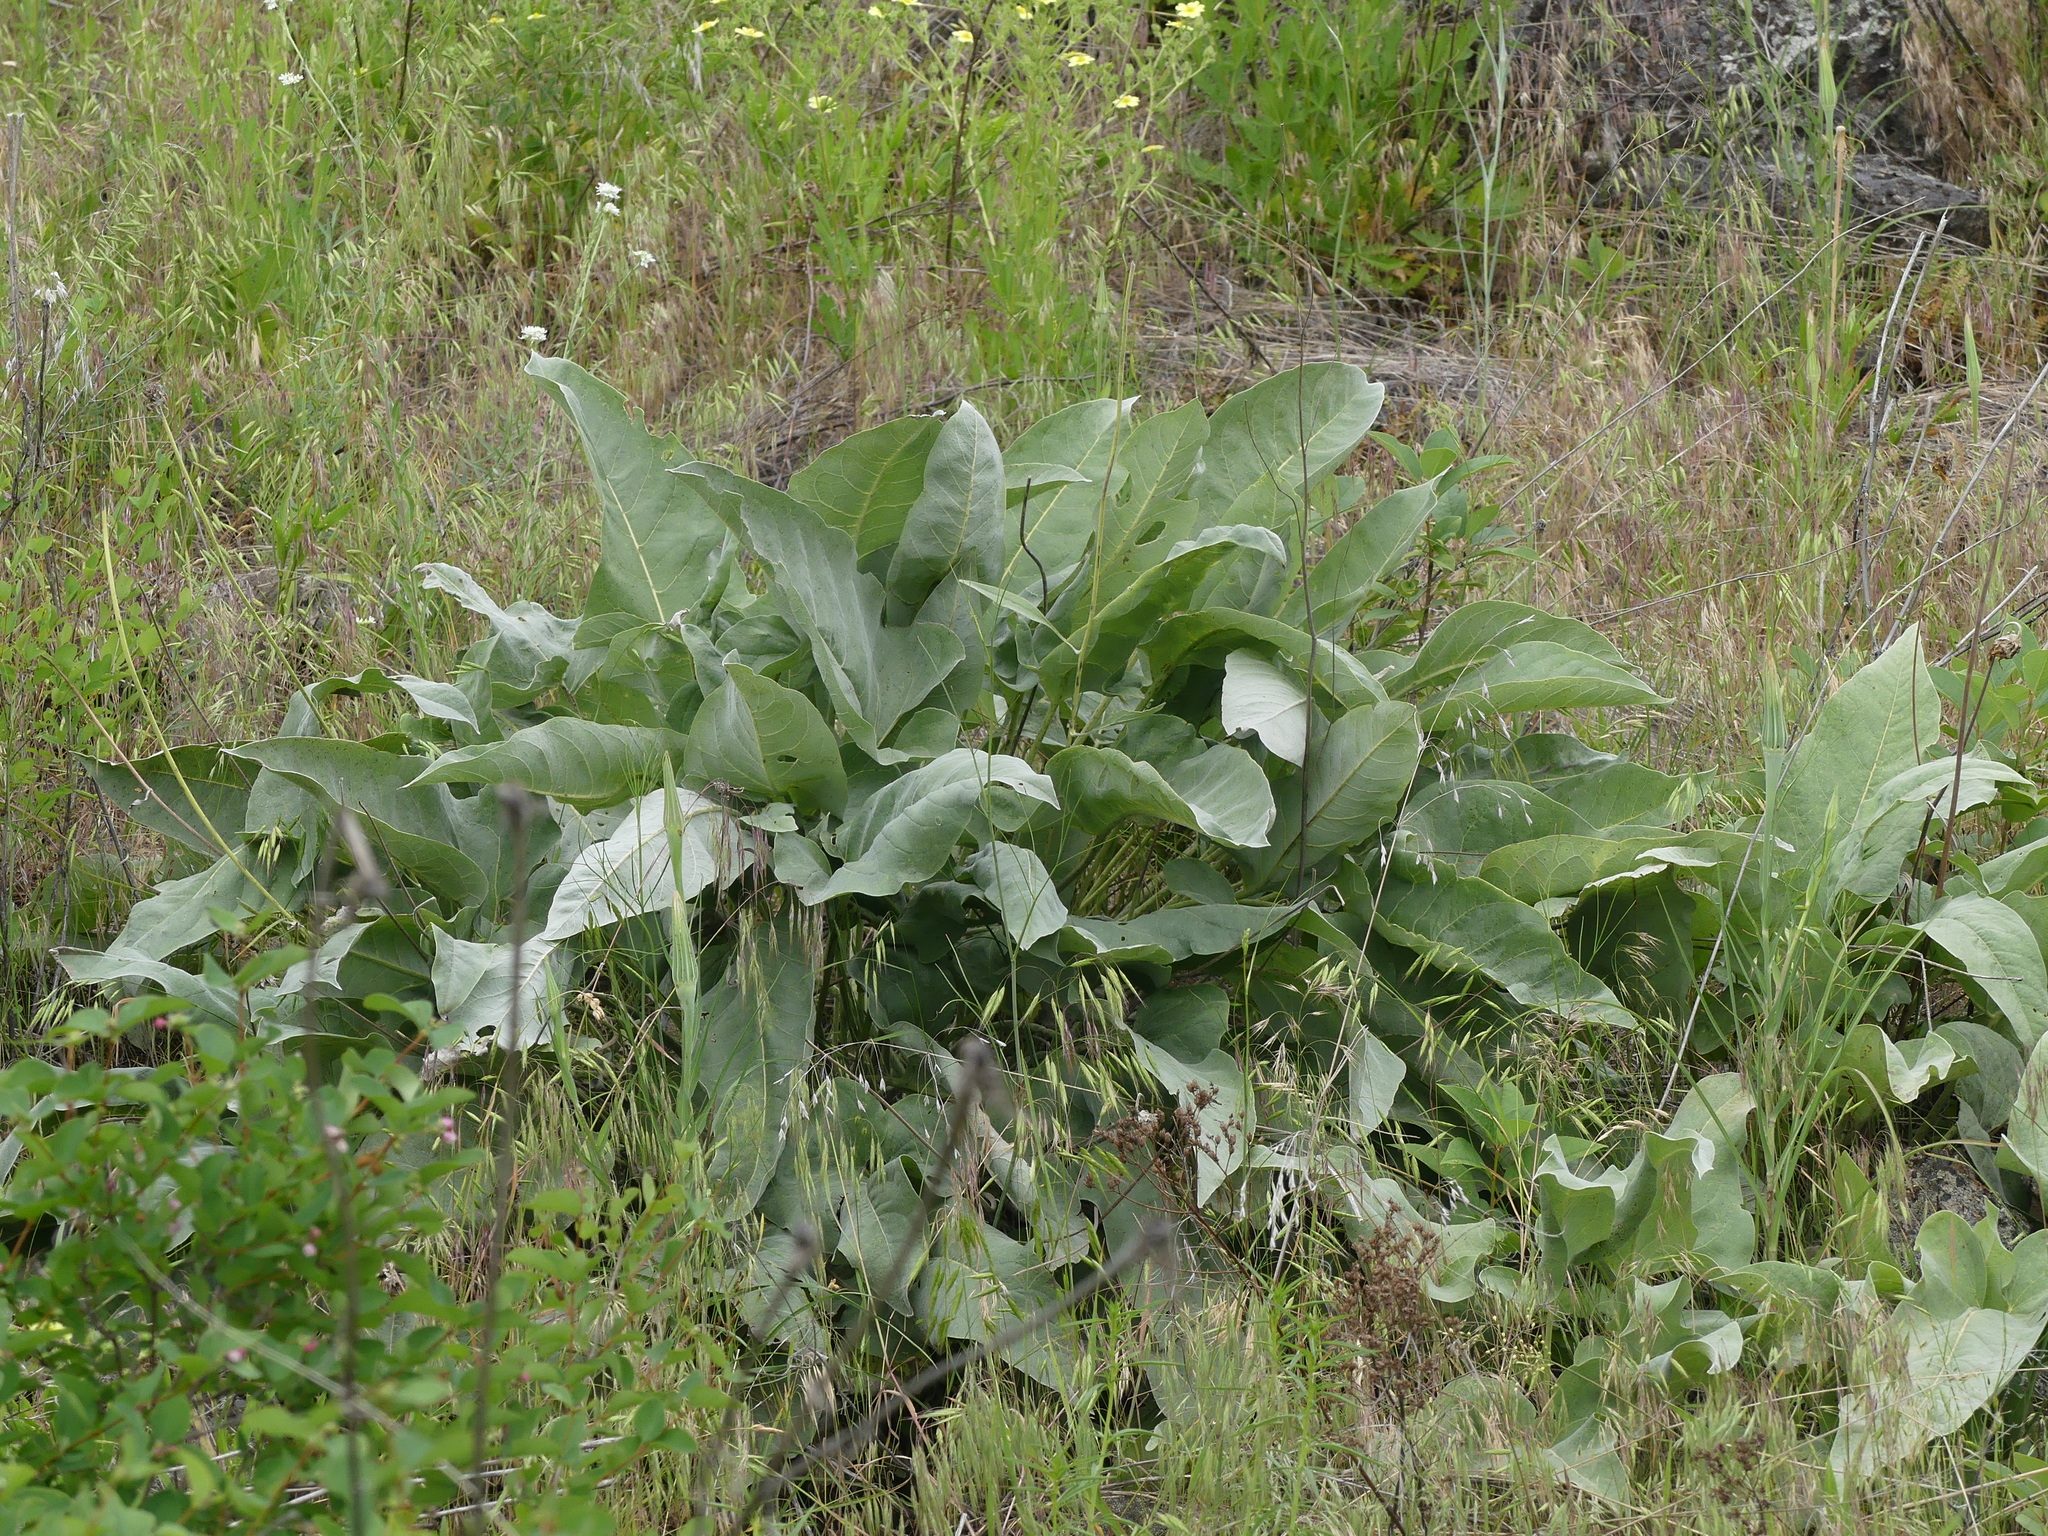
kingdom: Plantae
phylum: Tracheophyta
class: Magnoliopsida
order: Asterales
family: Asteraceae
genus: Wyethia
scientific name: Wyethia sagittata
